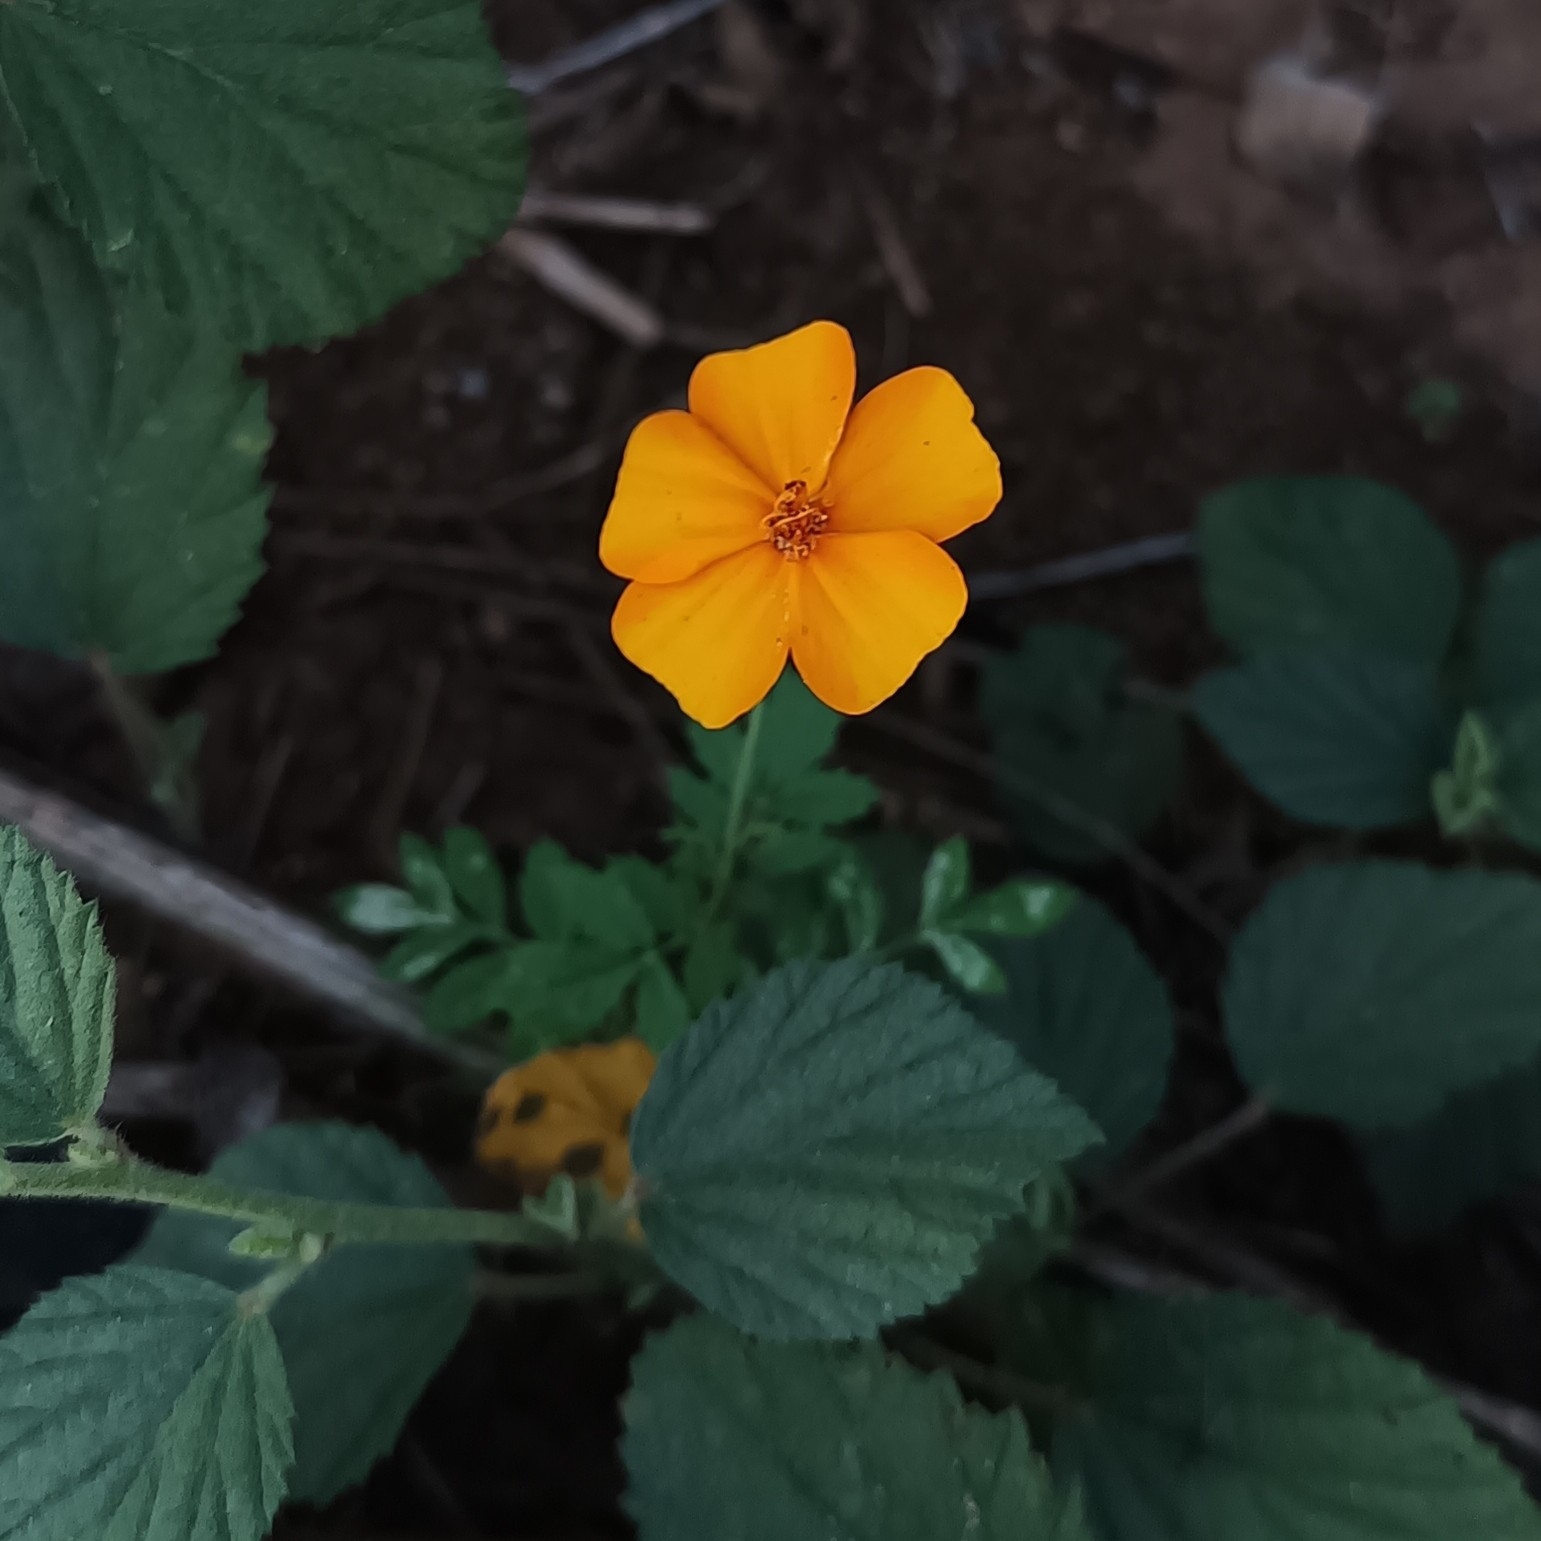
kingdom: Plantae
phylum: Tracheophyta
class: Magnoliopsida
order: Asterales
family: Asteraceae
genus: Tagetes
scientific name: Tagetes erecta
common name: African marigold
